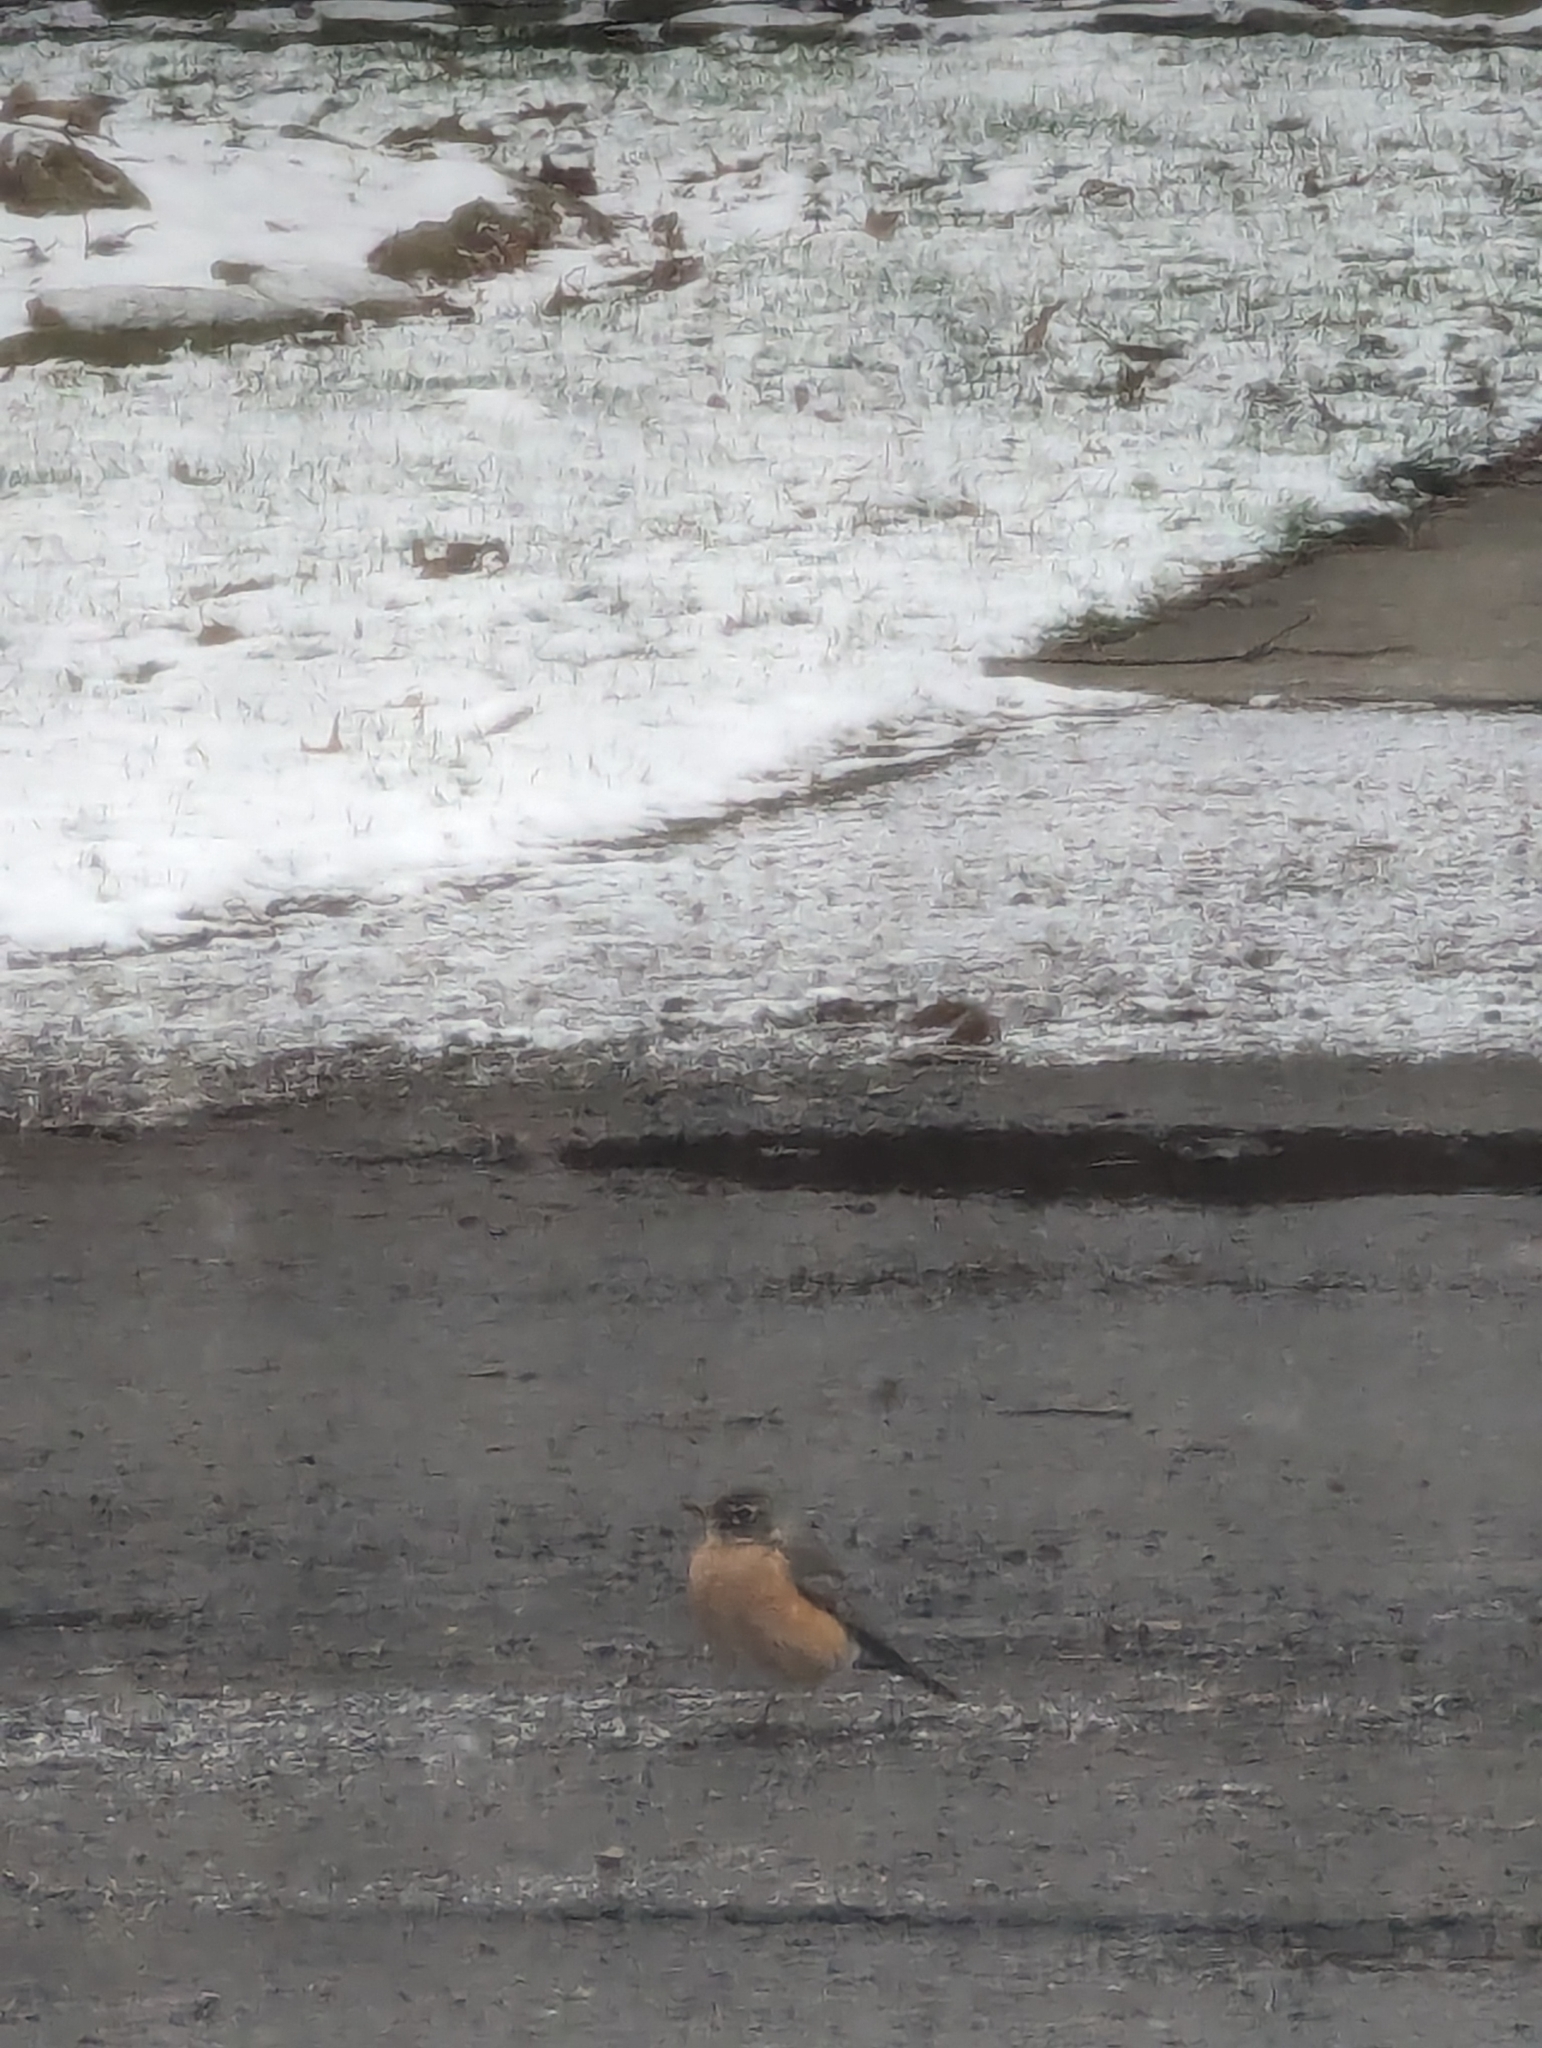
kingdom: Animalia
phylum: Chordata
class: Aves
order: Passeriformes
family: Turdidae
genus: Turdus
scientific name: Turdus migratorius
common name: American robin
